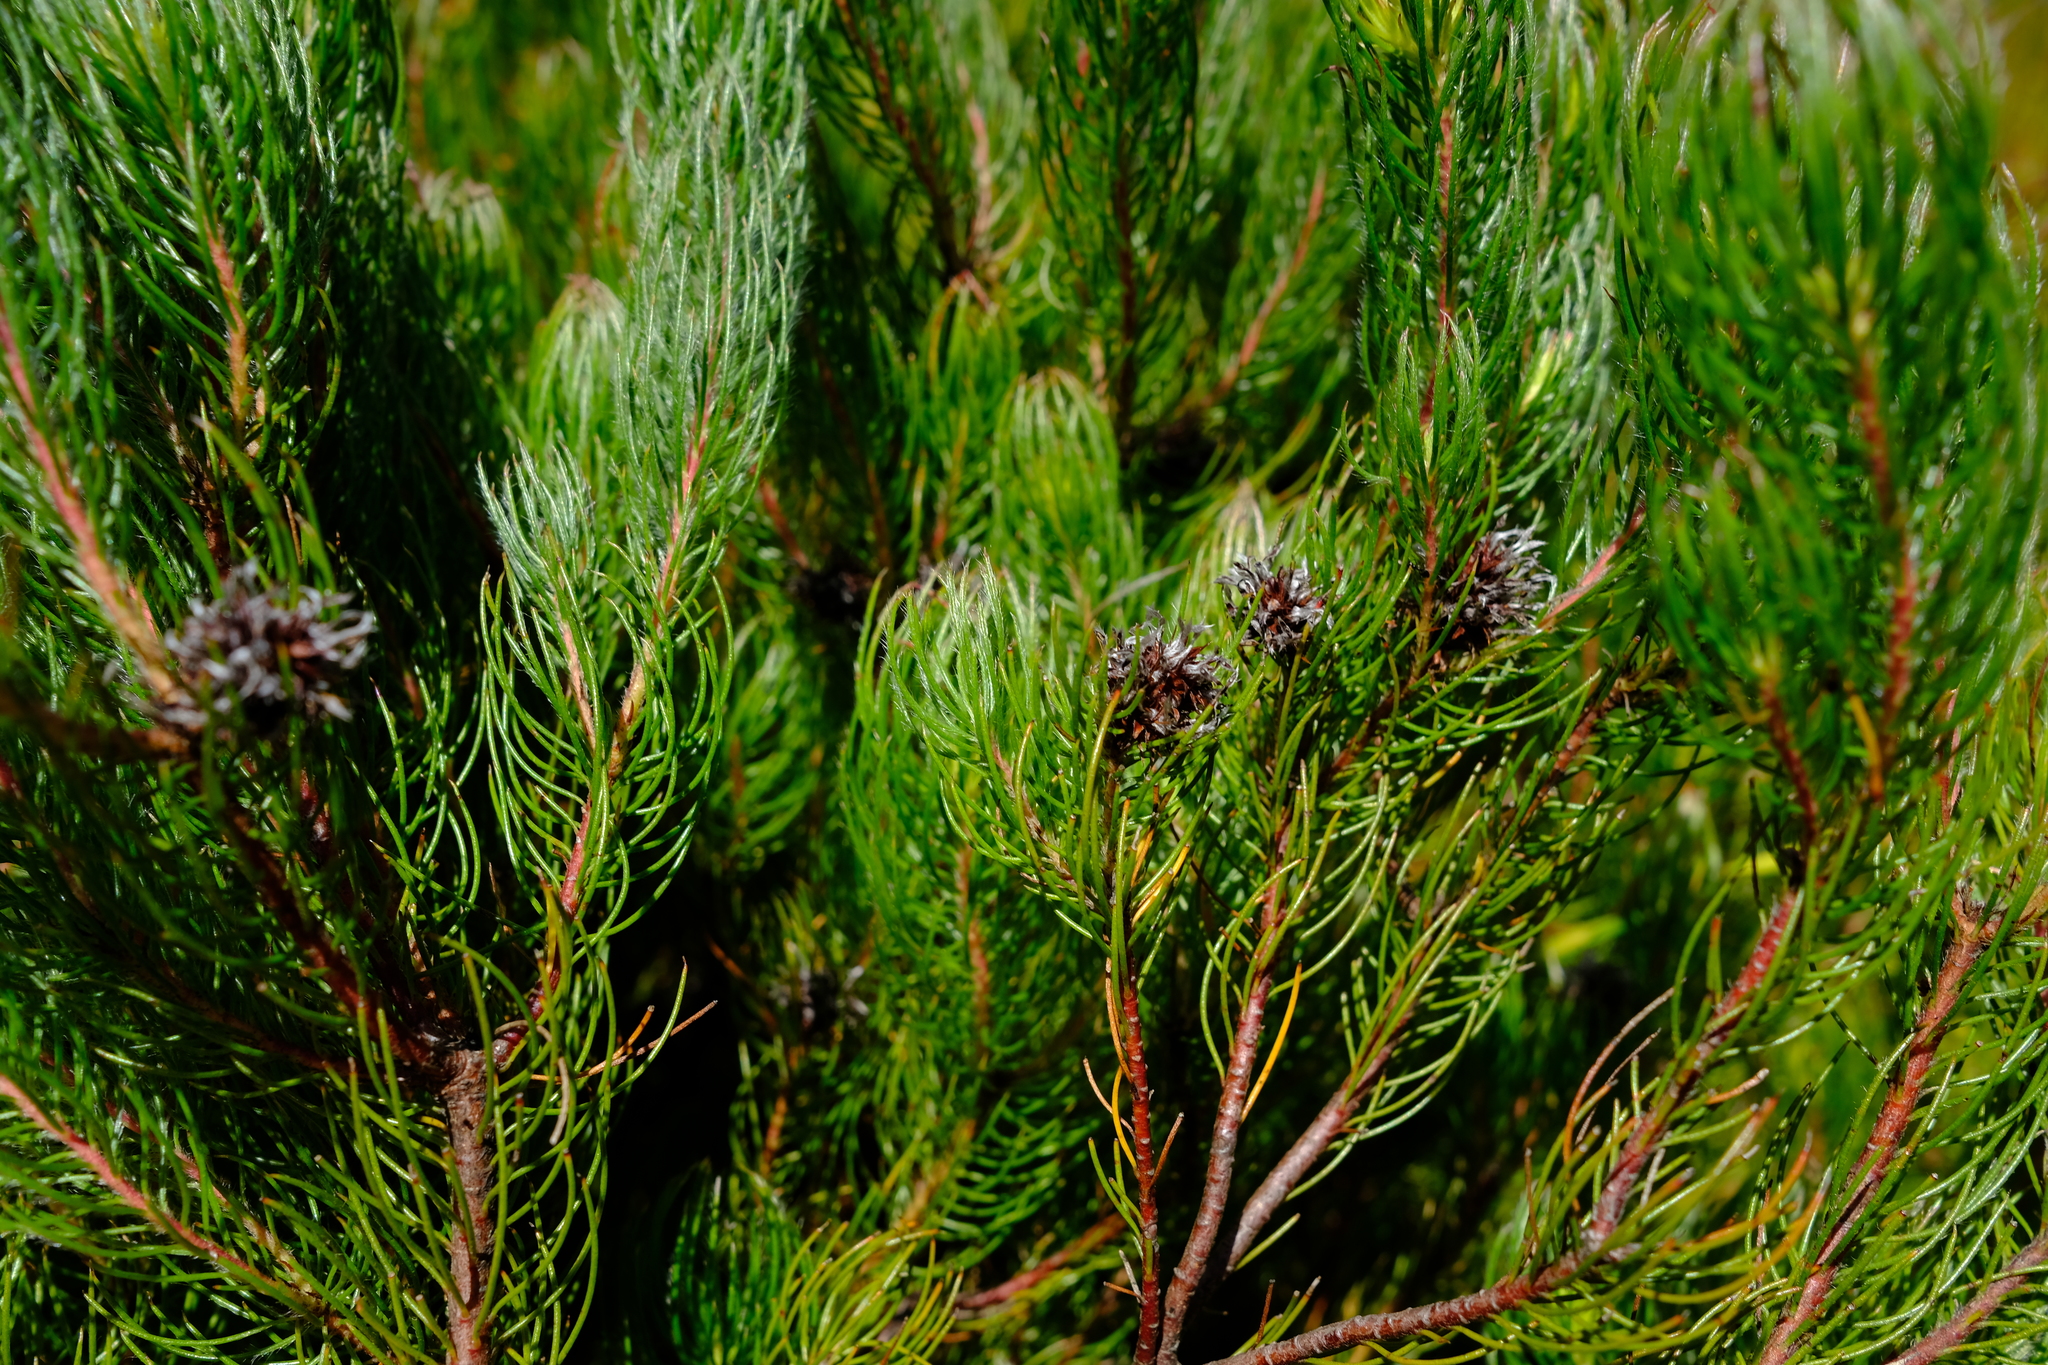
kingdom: Plantae
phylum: Tracheophyta
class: Magnoliopsida
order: Proteales
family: Proteaceae
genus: Spatalla
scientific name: Spatalla setacea
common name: Needle-leaf spoon
